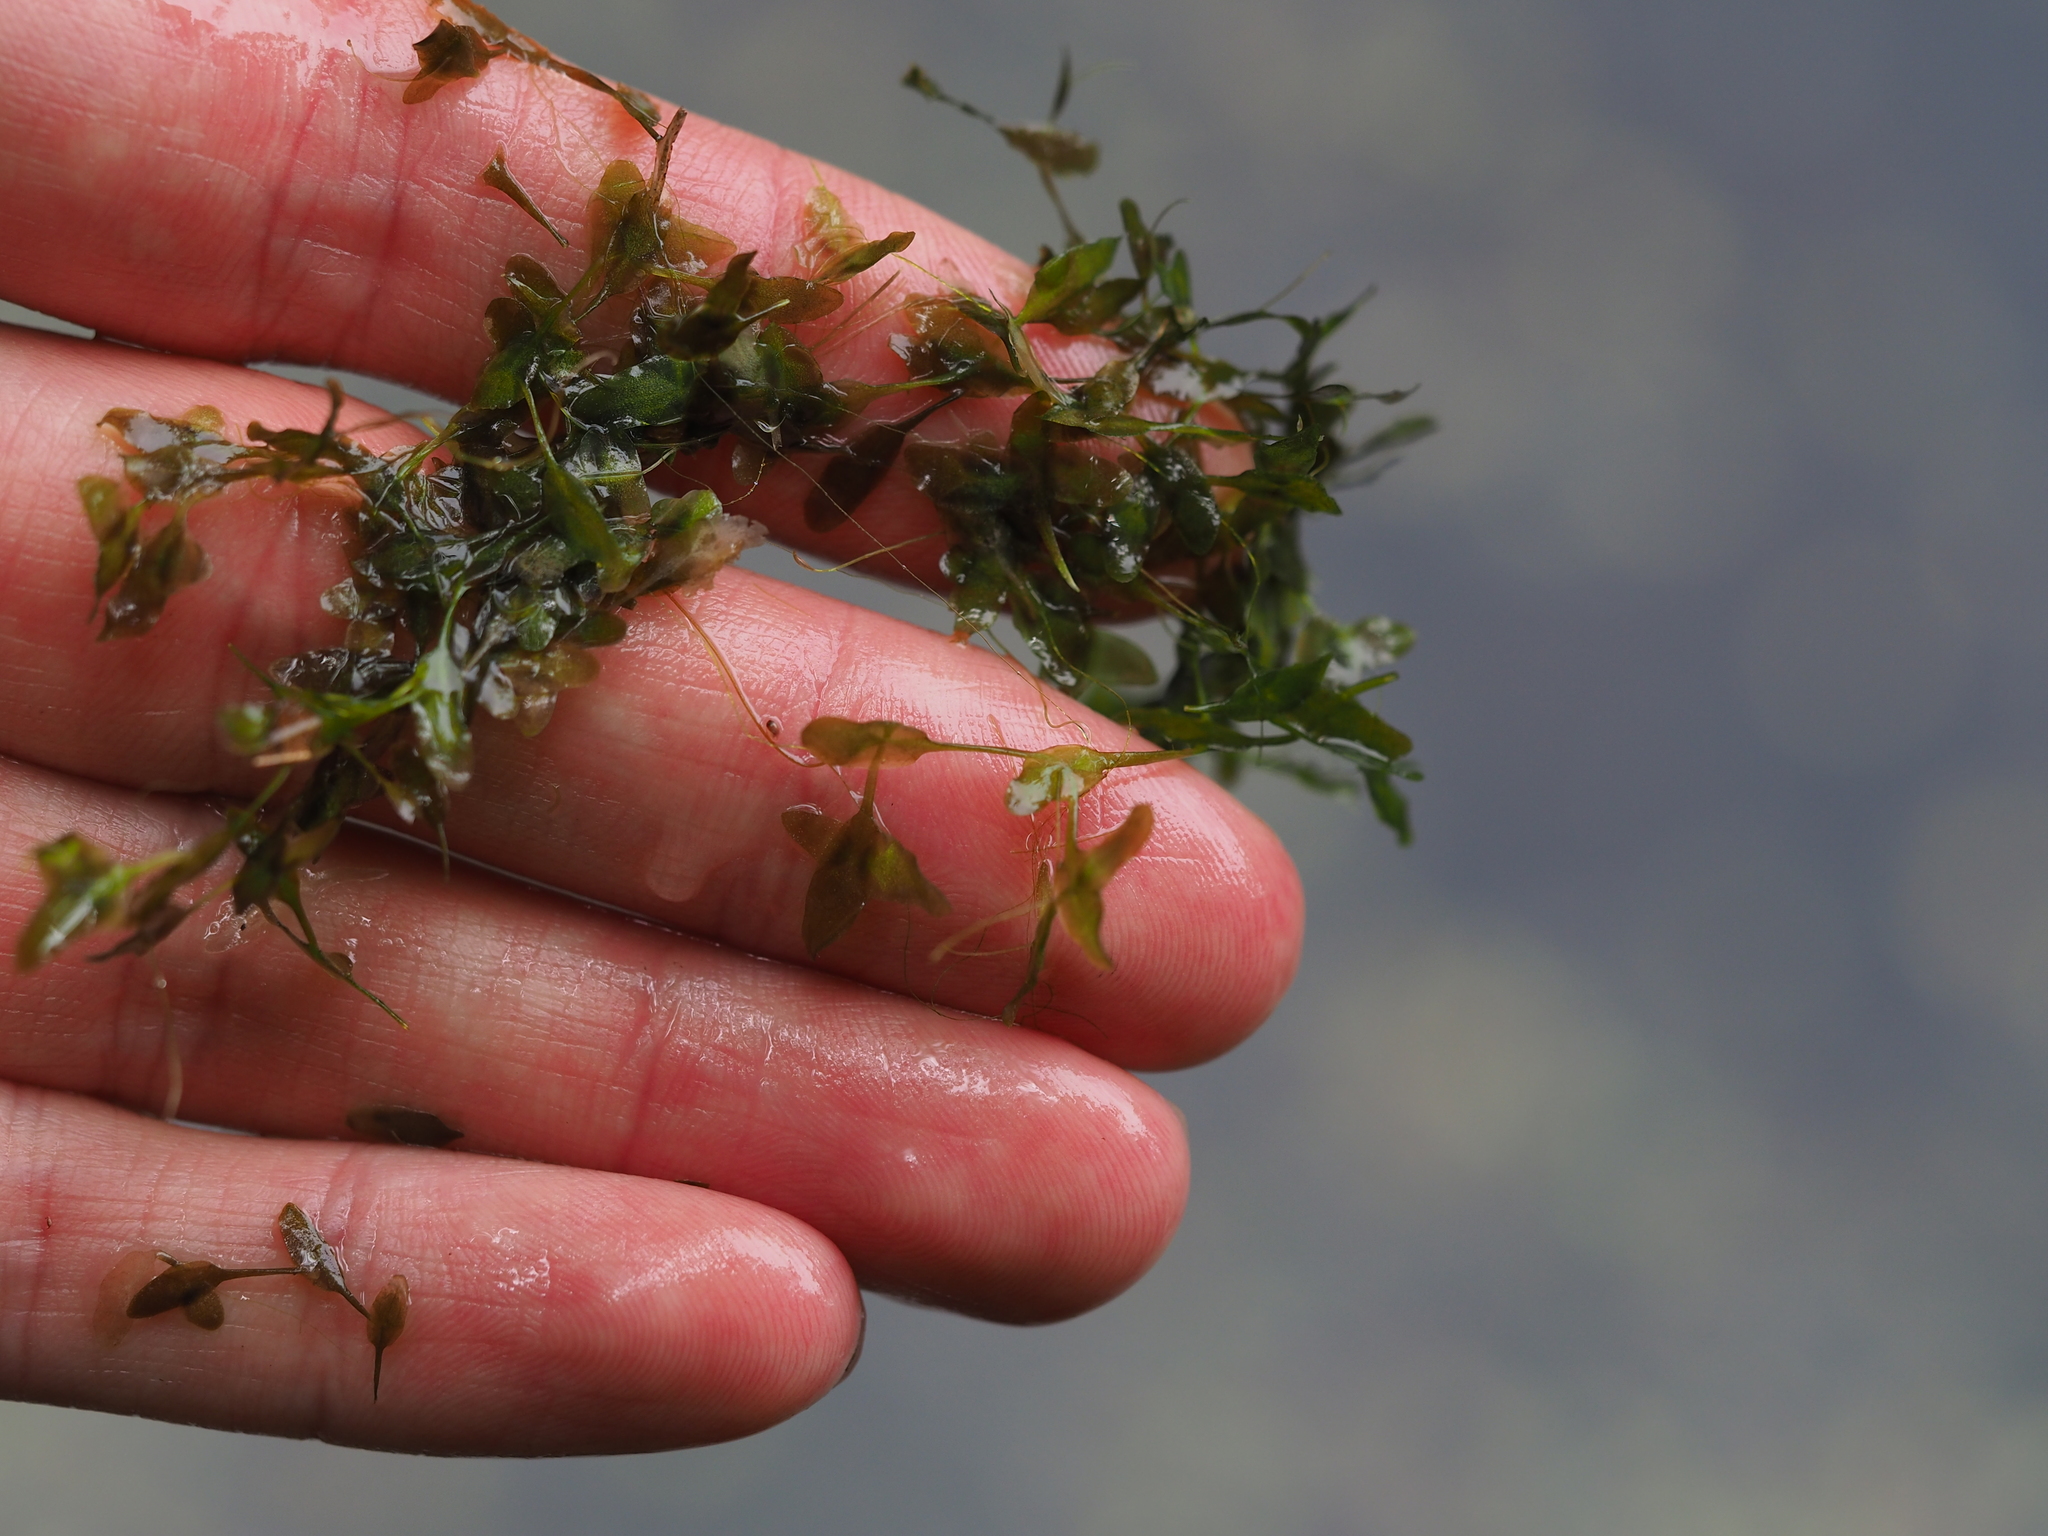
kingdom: Plantae
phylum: Tracheophyta
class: Liliopsida
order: Alismatales
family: Araceae
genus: Lemna
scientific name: Lemna trisulca
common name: Ivy-leaved duckweed
